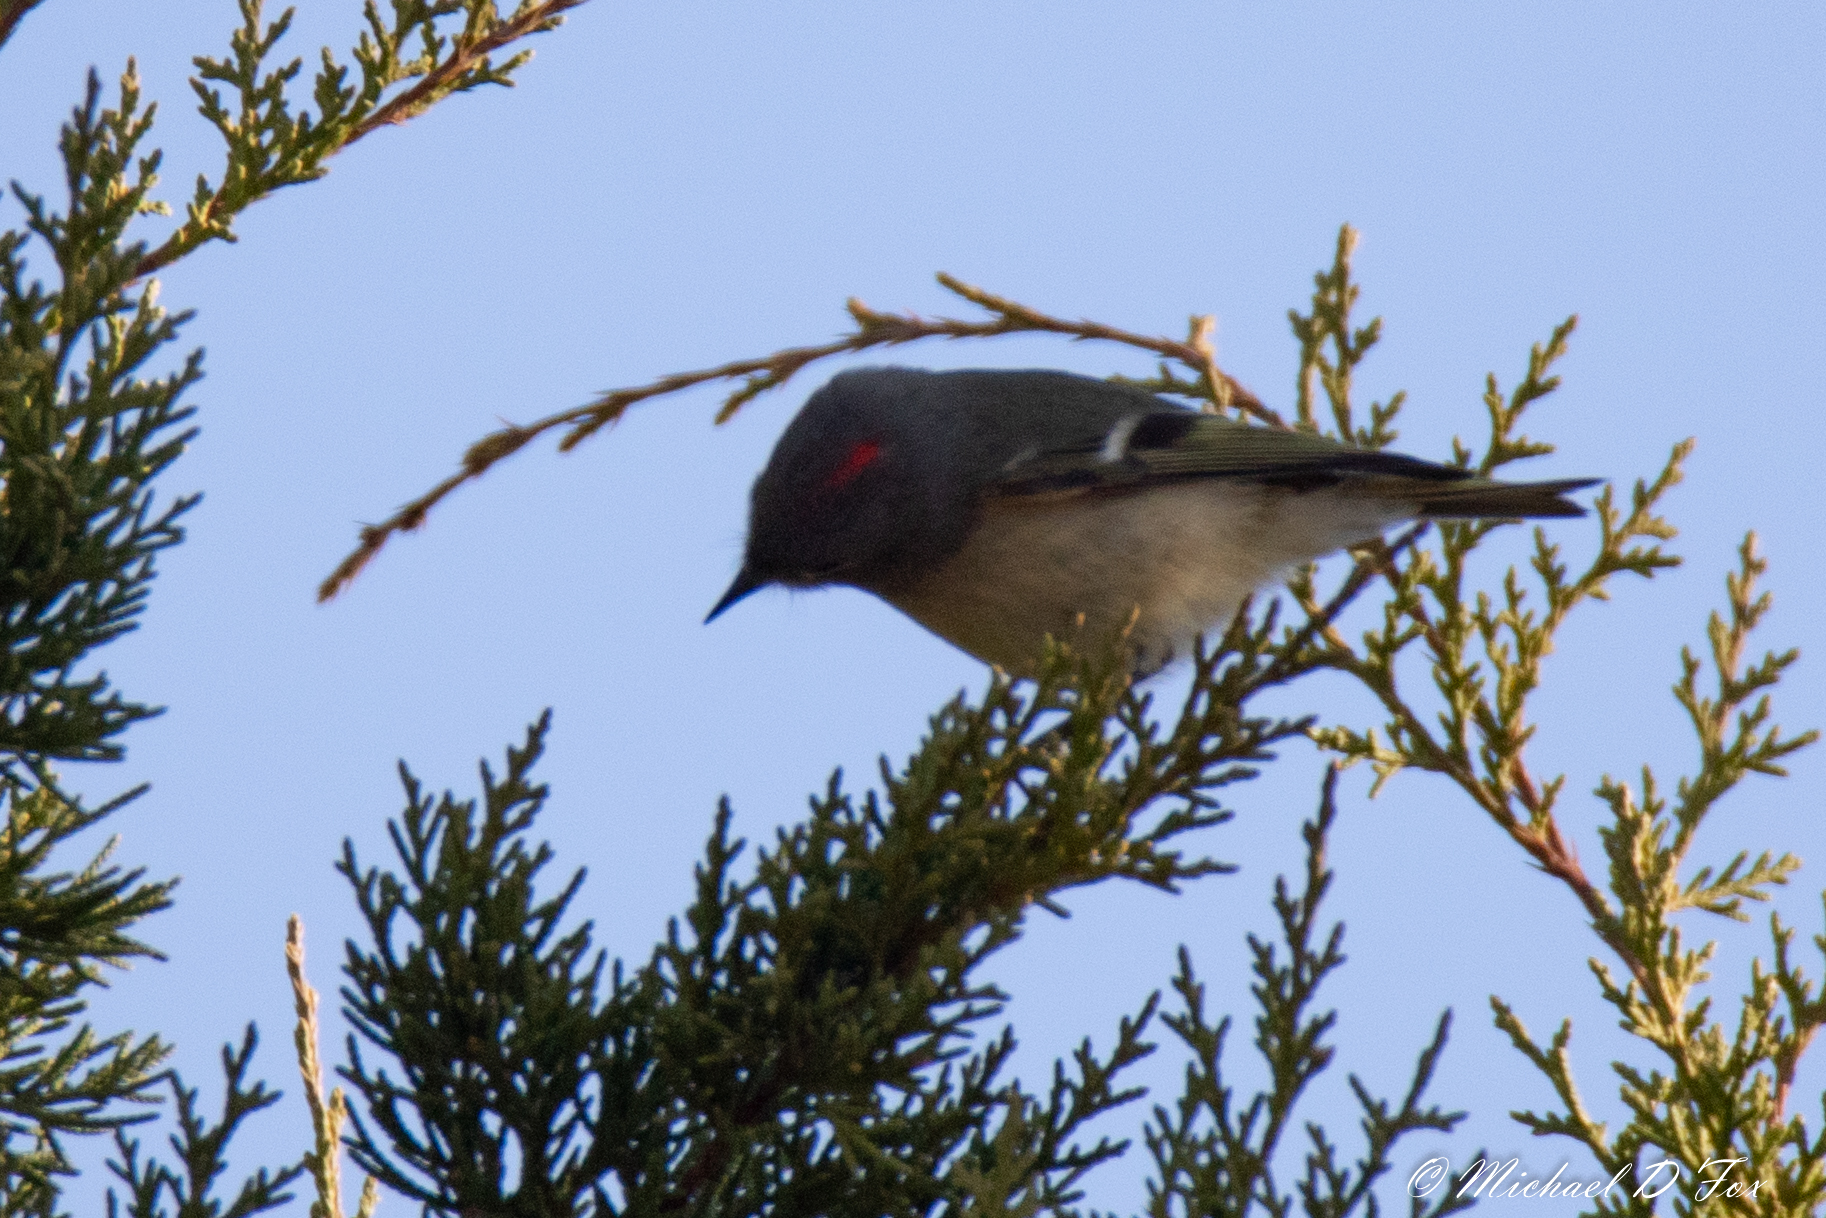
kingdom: Animalia
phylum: Chordata
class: Aves
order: Passeriformes
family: Regulidae
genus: Regulus
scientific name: Regulus calendula
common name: Ruby-crowned kinglet
